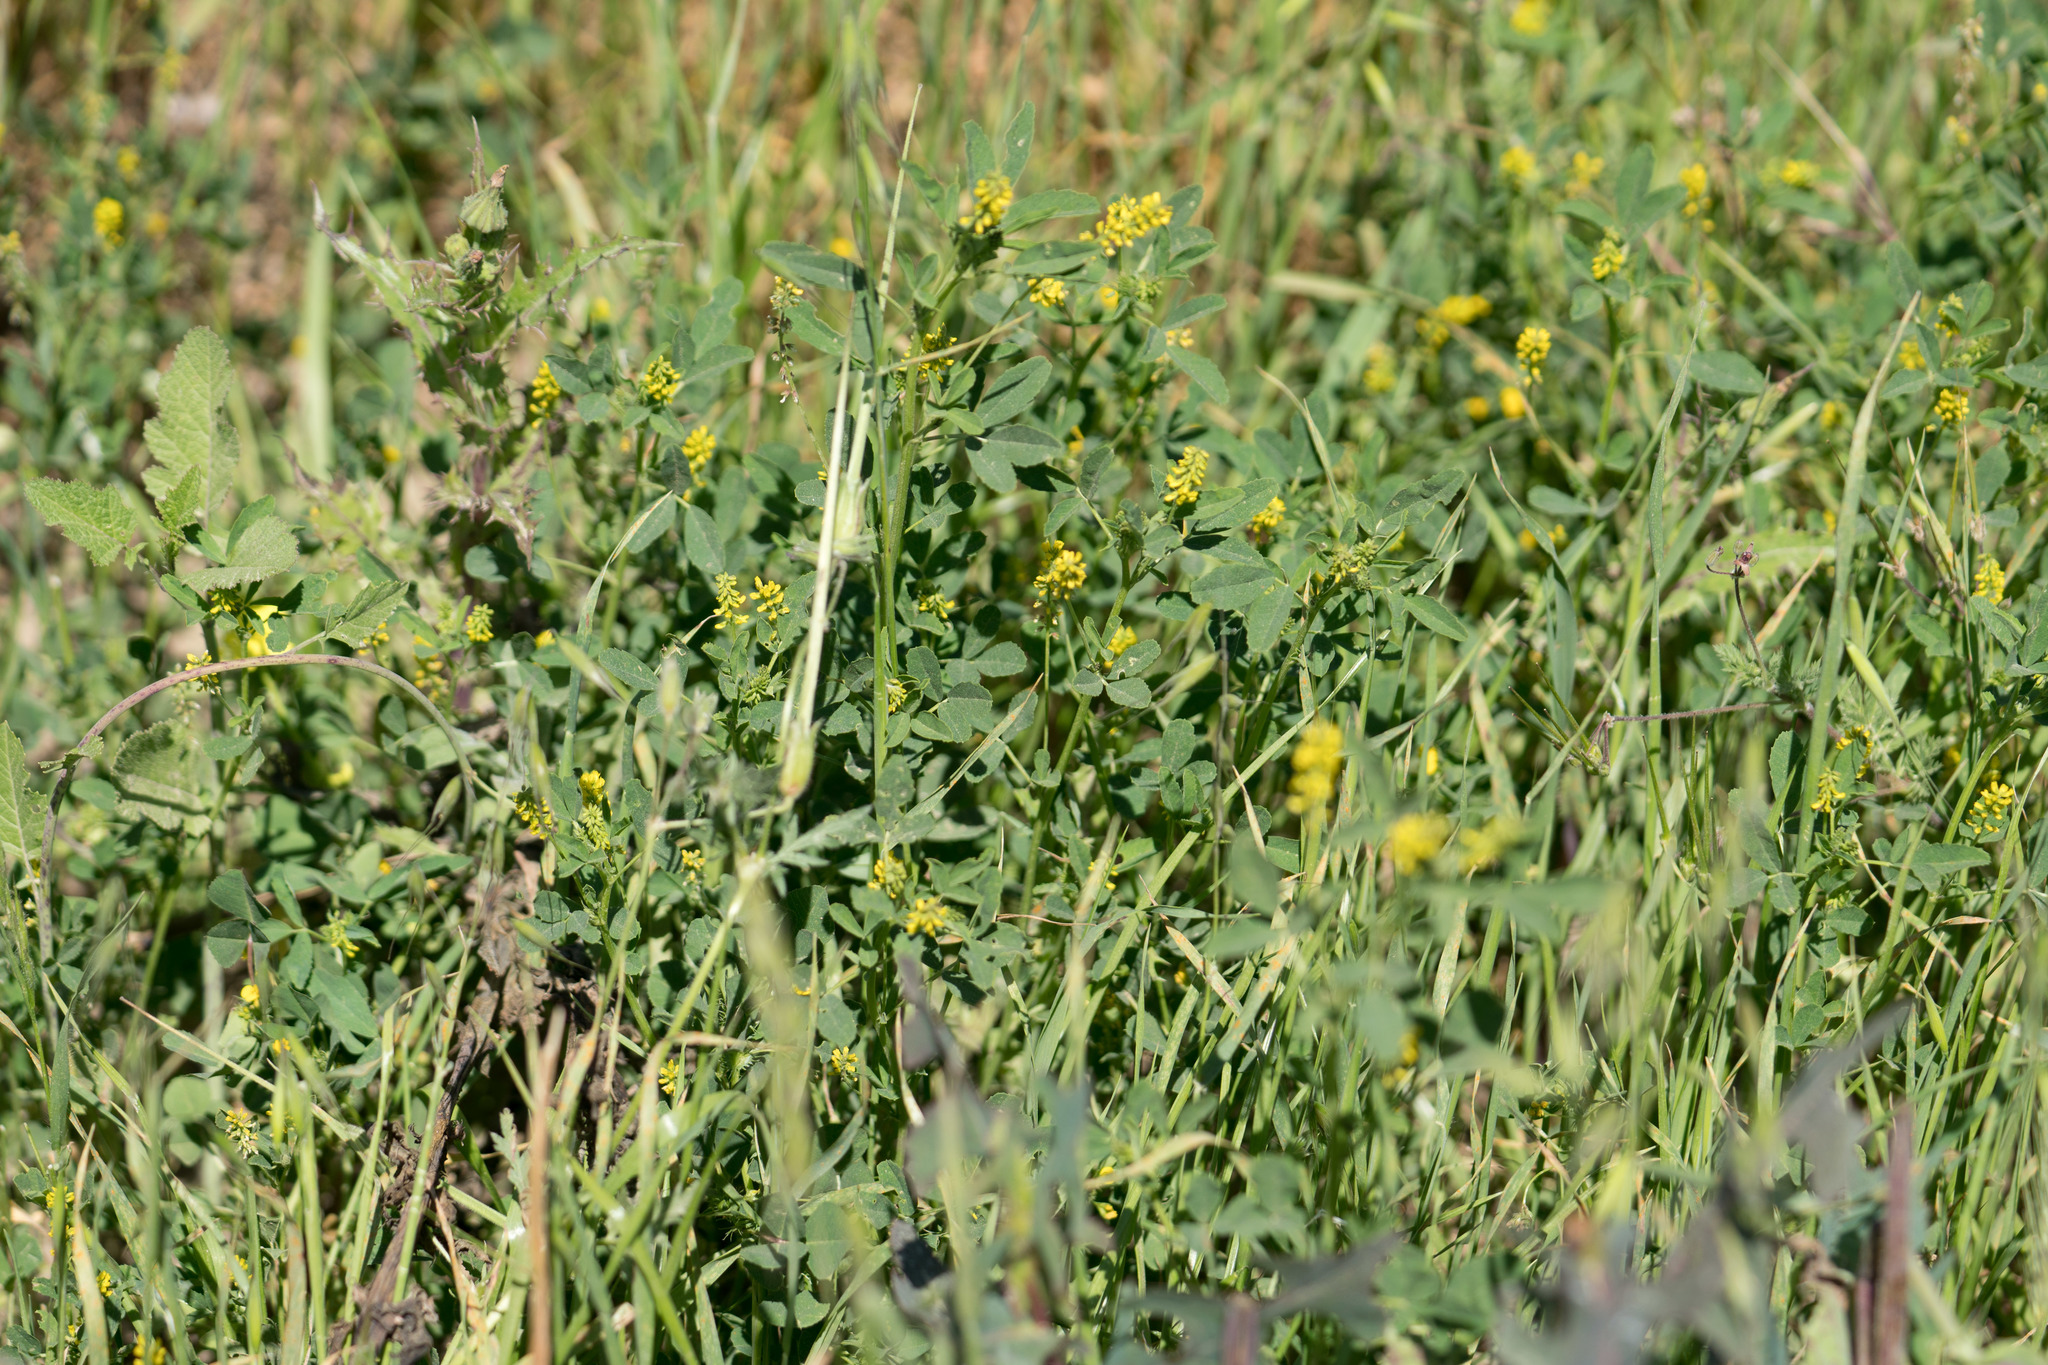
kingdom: Plantae
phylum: Tracheophyta
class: Magnoliopsida
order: Fabales
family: Fabaceae
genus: Melilotus
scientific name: Melilotus indicus
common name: Small melilot
